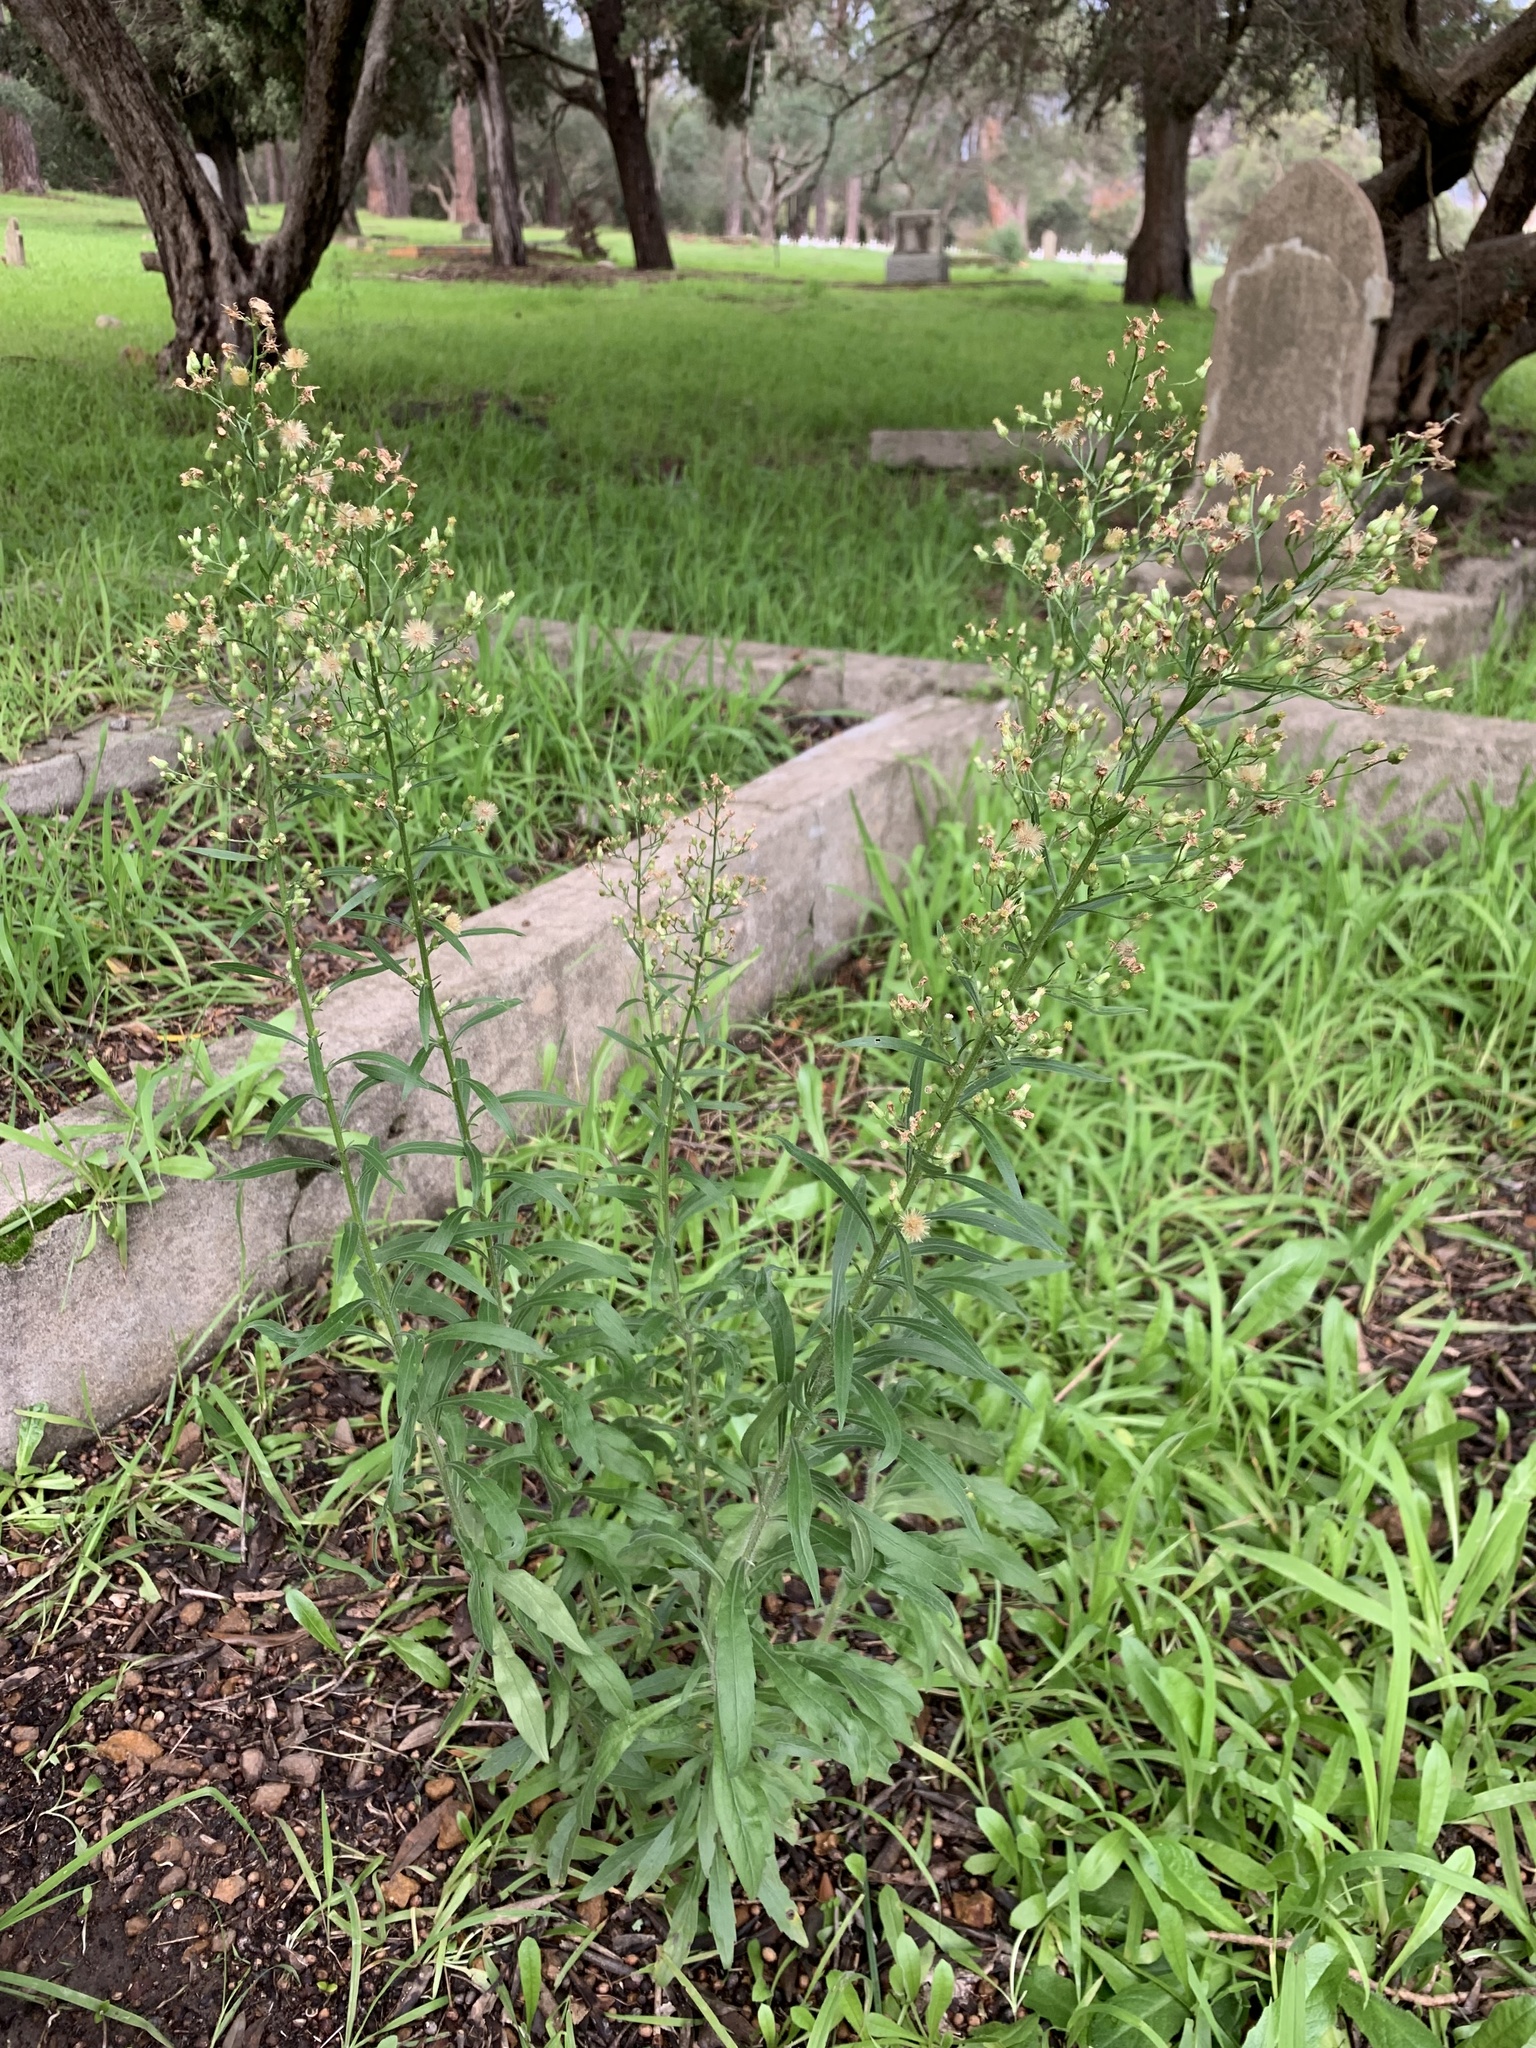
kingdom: Plantae
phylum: Tracheophyta
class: Magnoliopsida
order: Asterales
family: Asteraceae
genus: Erigeron
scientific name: Erigeron sumatrensis
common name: Daisy
